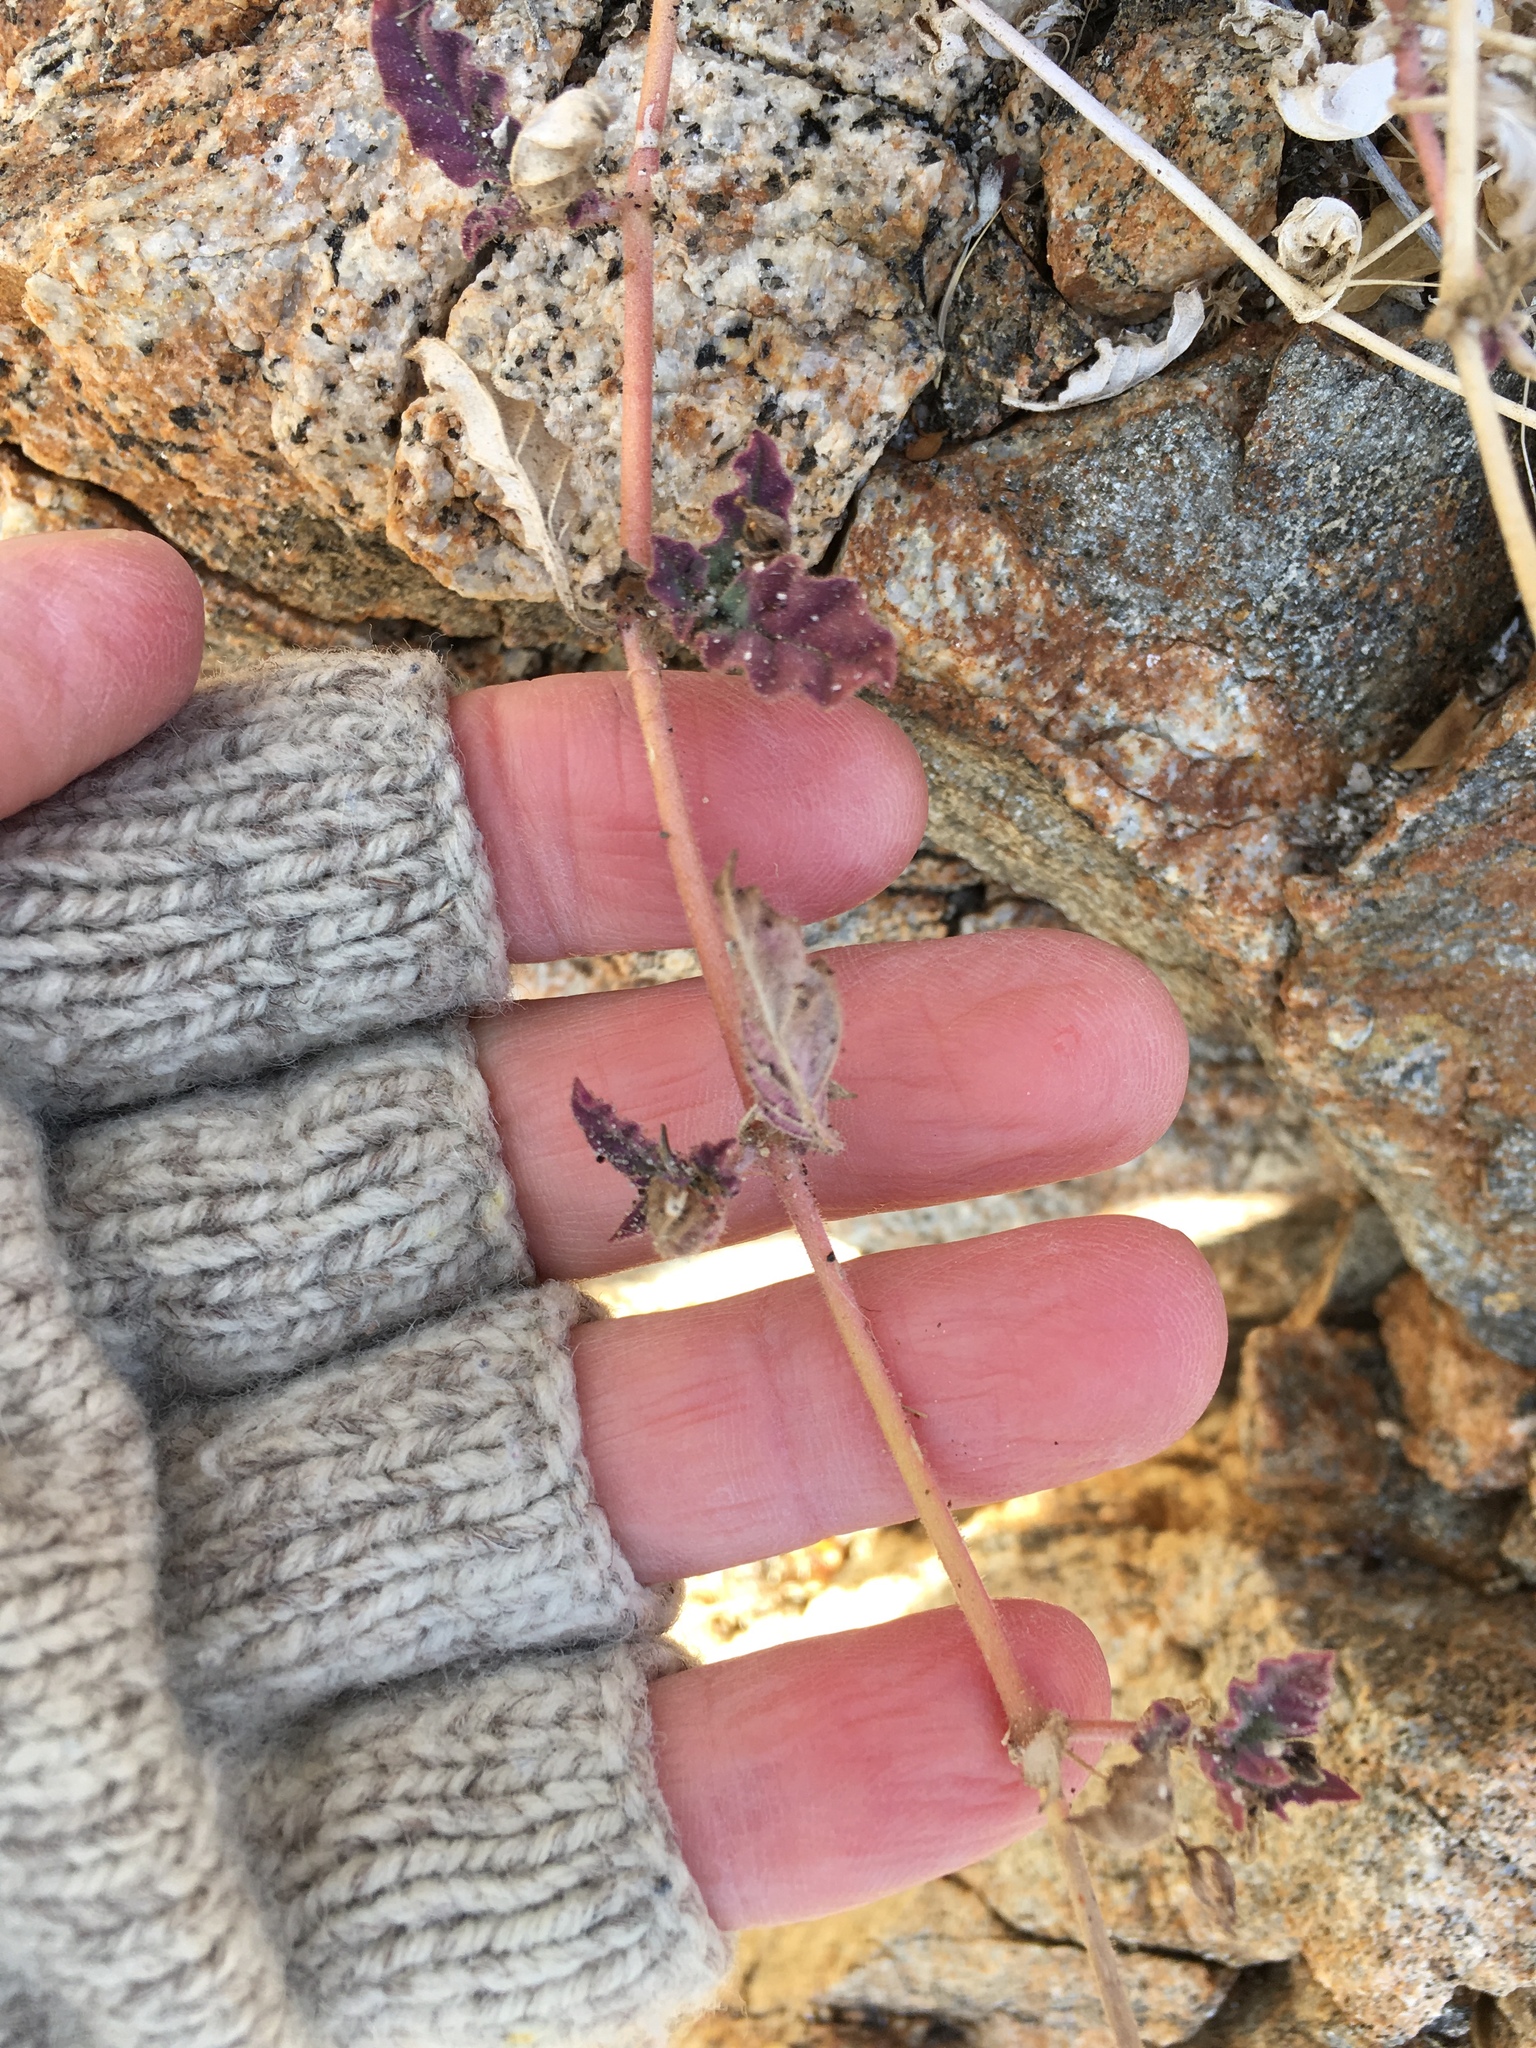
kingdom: Plantae
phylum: Tracheophyta
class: Magnoliopsida
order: Caryophyllales
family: Nyctaginaceae
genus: Allionia
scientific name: Allionia incarnata
